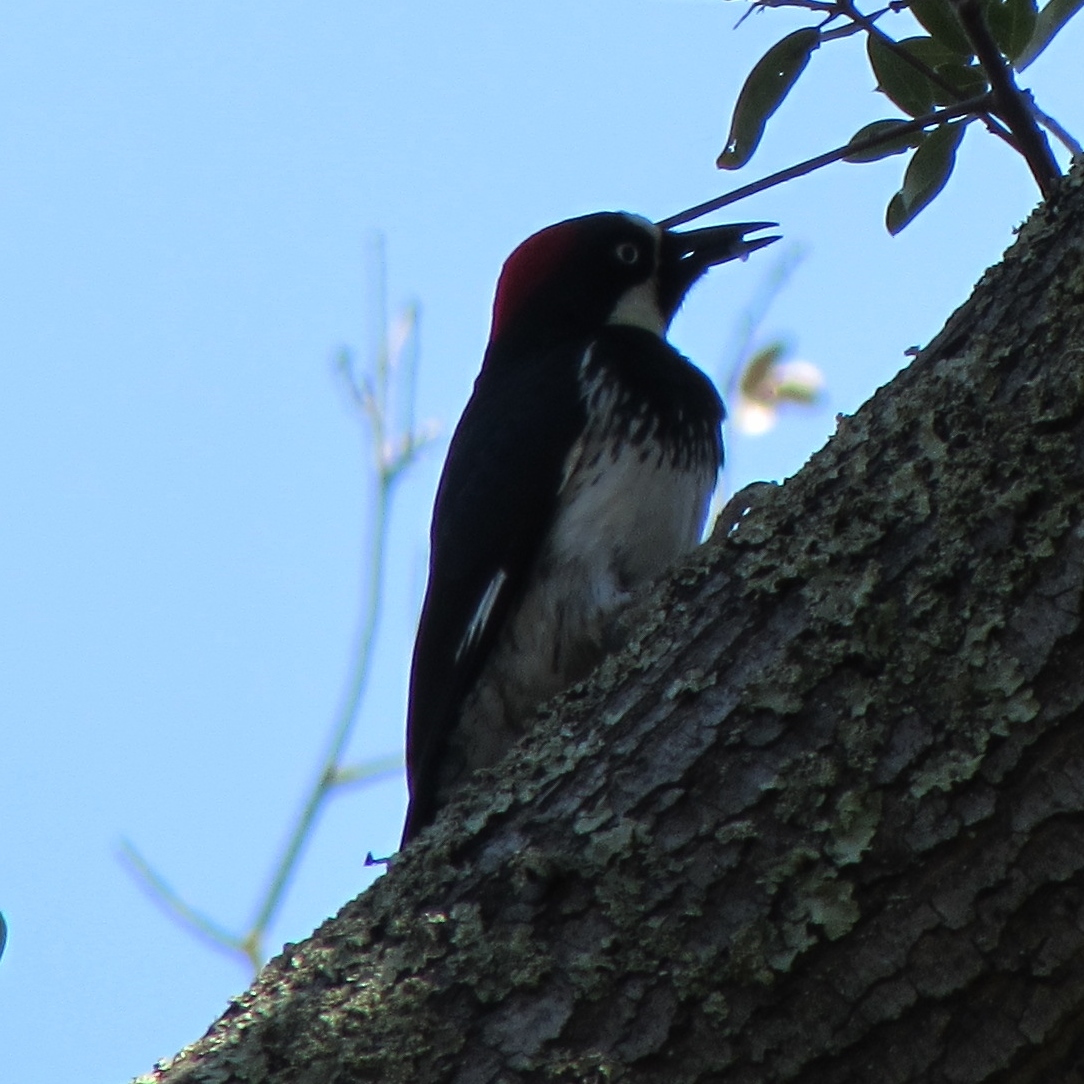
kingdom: Animalia
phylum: Chordata
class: Aves
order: Piciformes
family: Picidae
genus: Melanerpes
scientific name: Melanerpes formicivorus
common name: Acorn woodpecker
